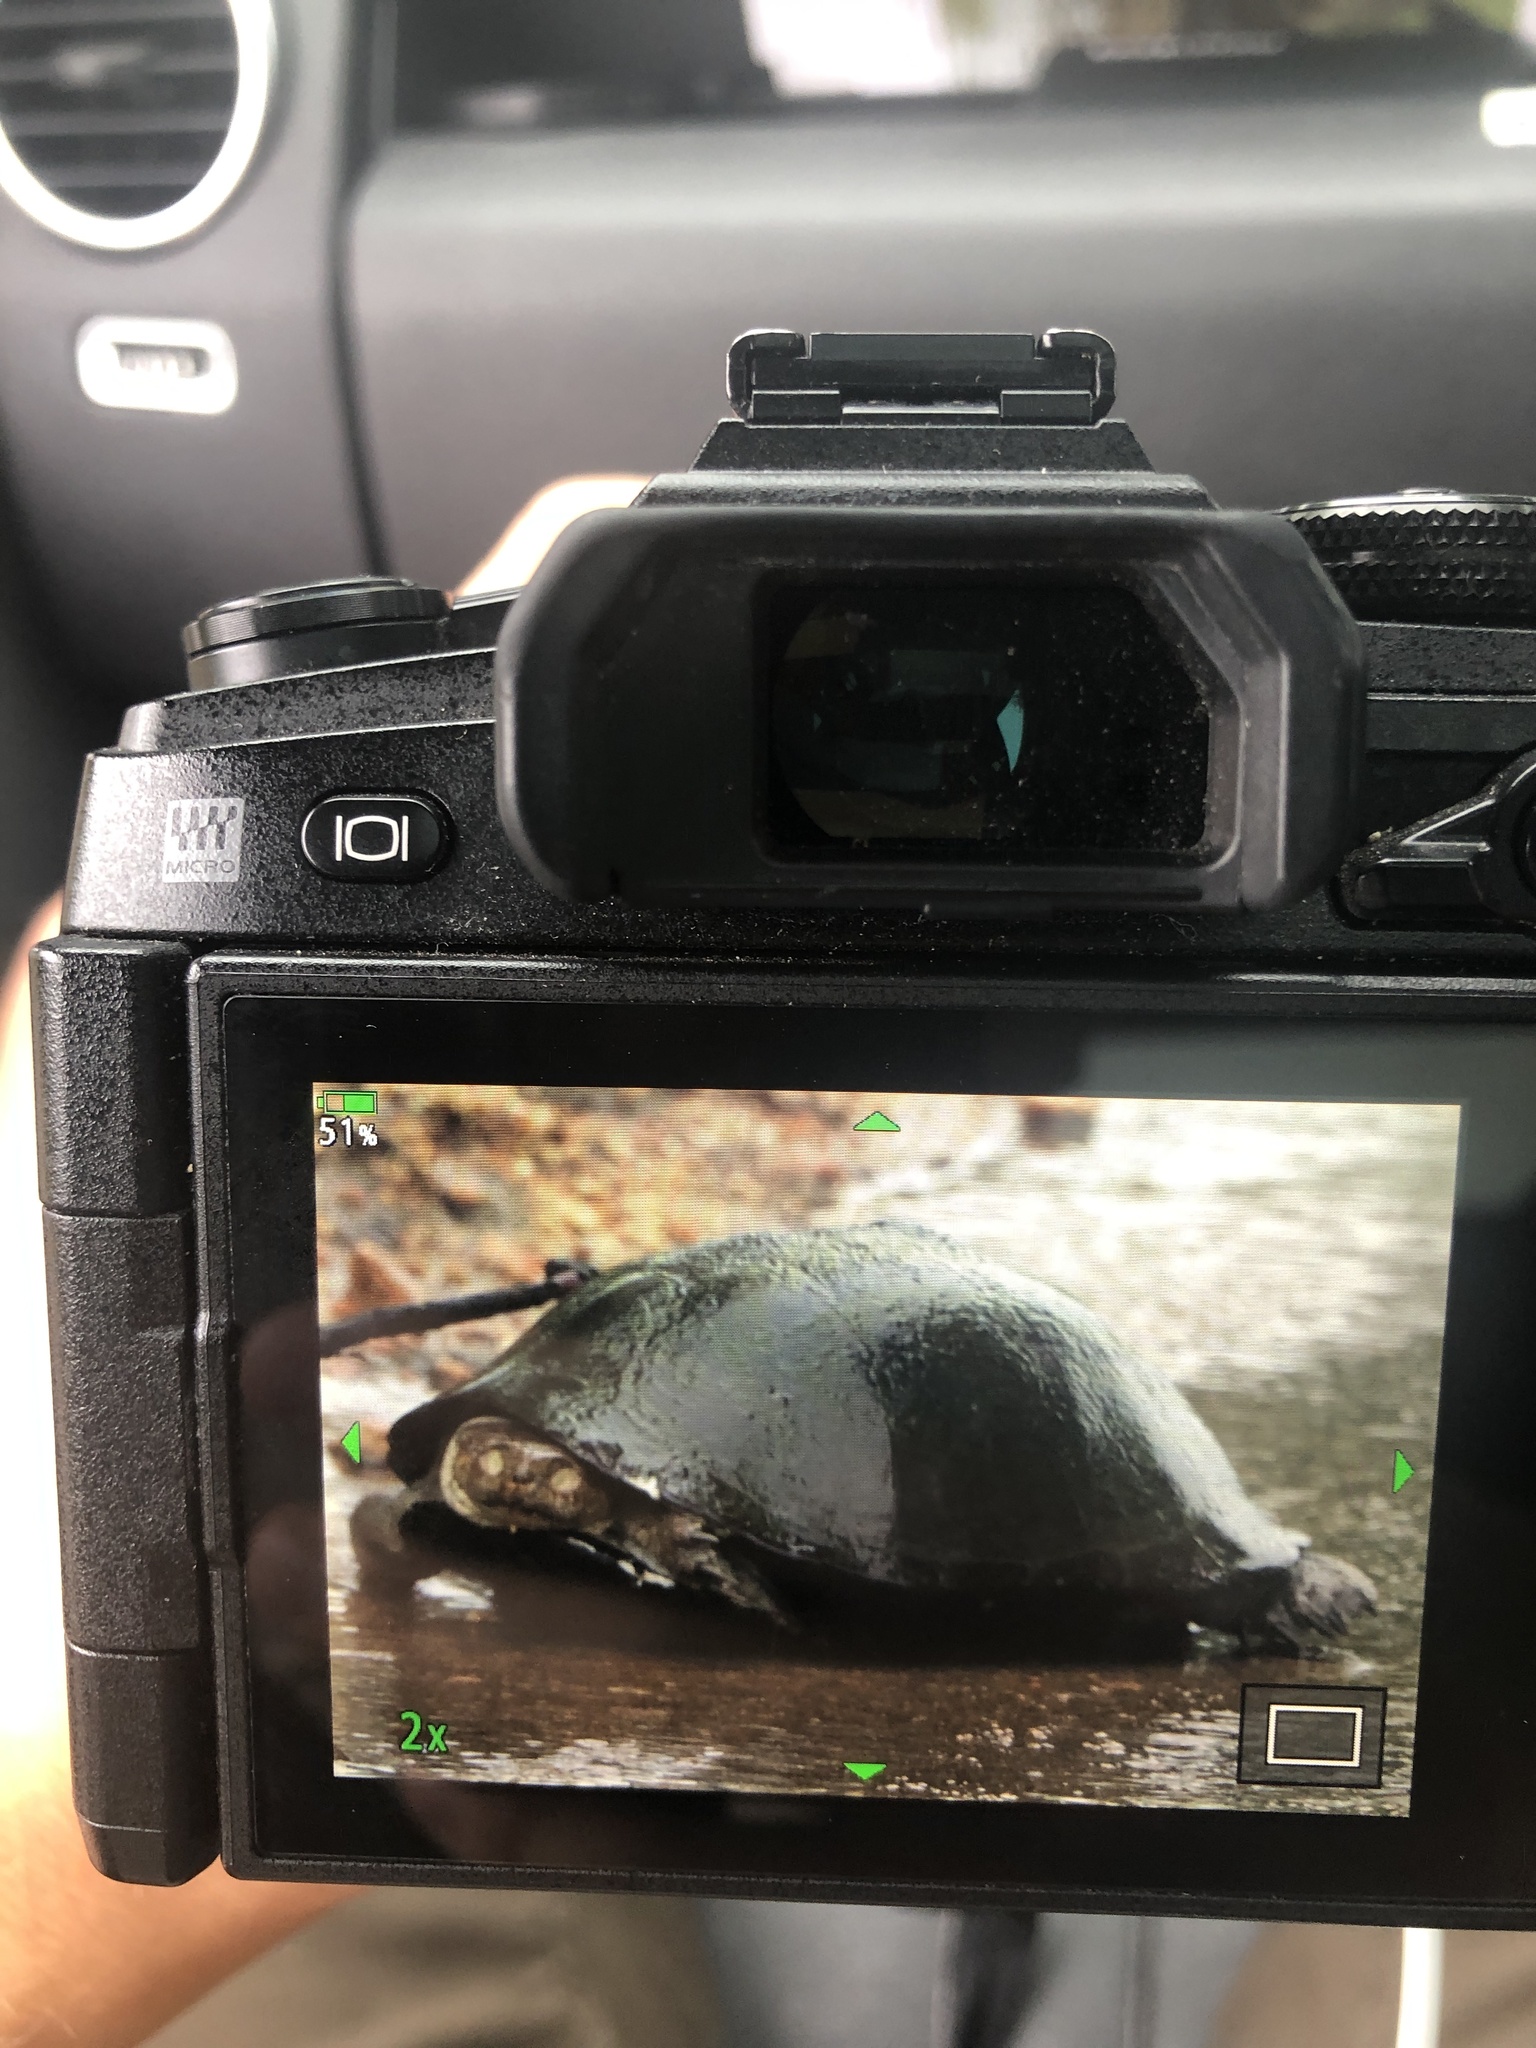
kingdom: Animalia
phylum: Chordata
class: Testudines
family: Pelomedusidae
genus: Pelusios
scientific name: Pelusios sinuatus
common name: Serrated hinged terrapin
